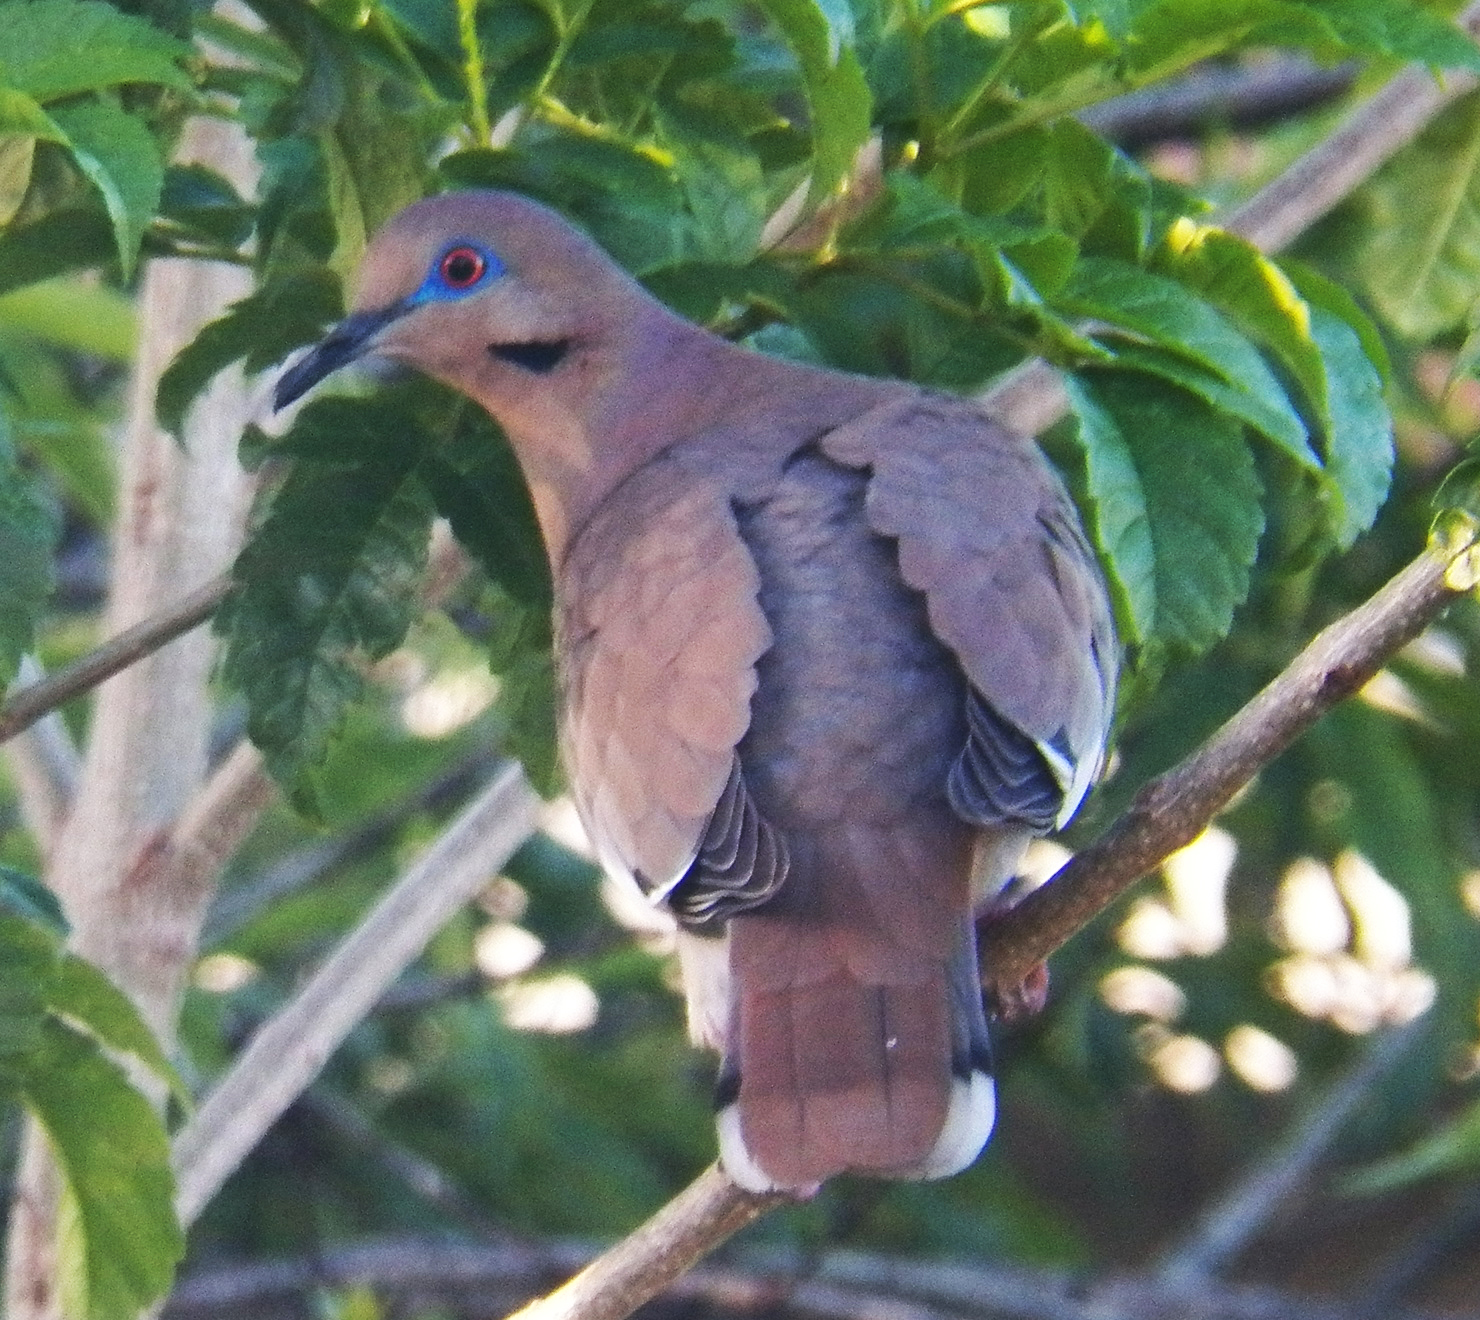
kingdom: Animalia
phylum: Chordata
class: Aves
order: Columbiformes
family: Columbidae
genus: Zenaida
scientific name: Zenaida asiatica
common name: White-winged dove
